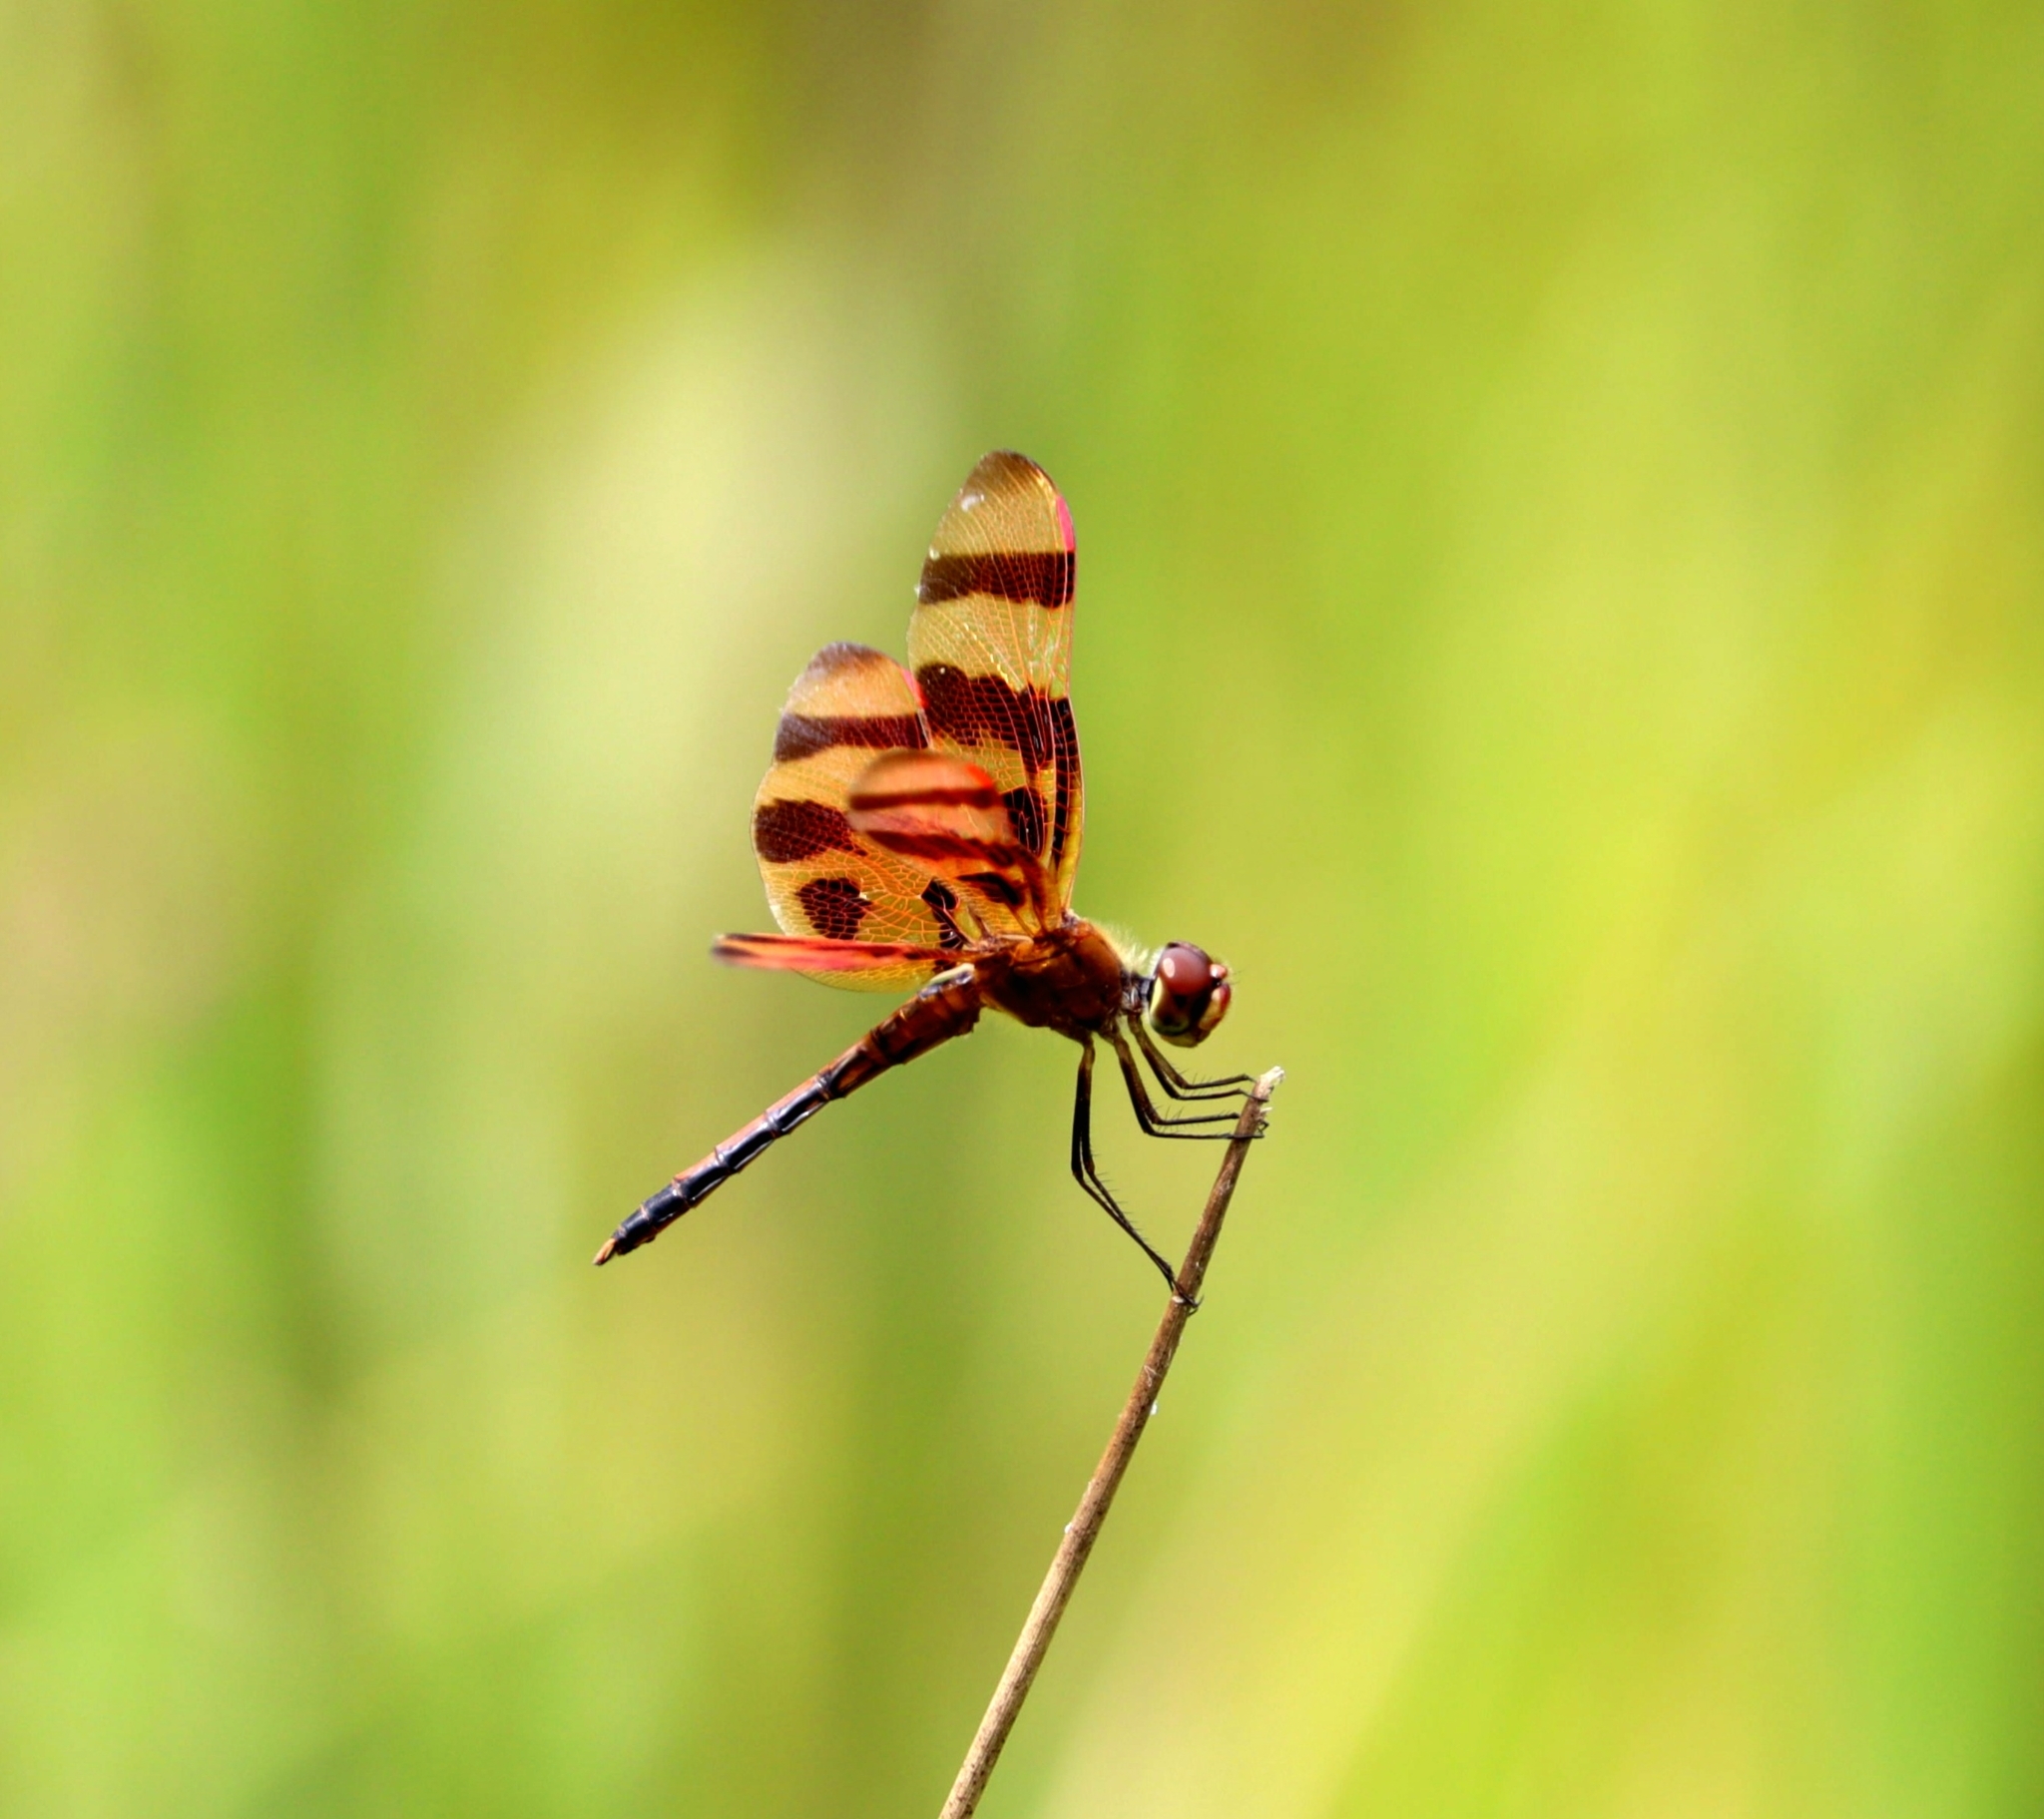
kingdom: Animalia
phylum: Arthropoda
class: Insecta
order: Odonata
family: Libellulidae
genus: Celithemis
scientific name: Celithemis eponina
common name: Halloween pennant
